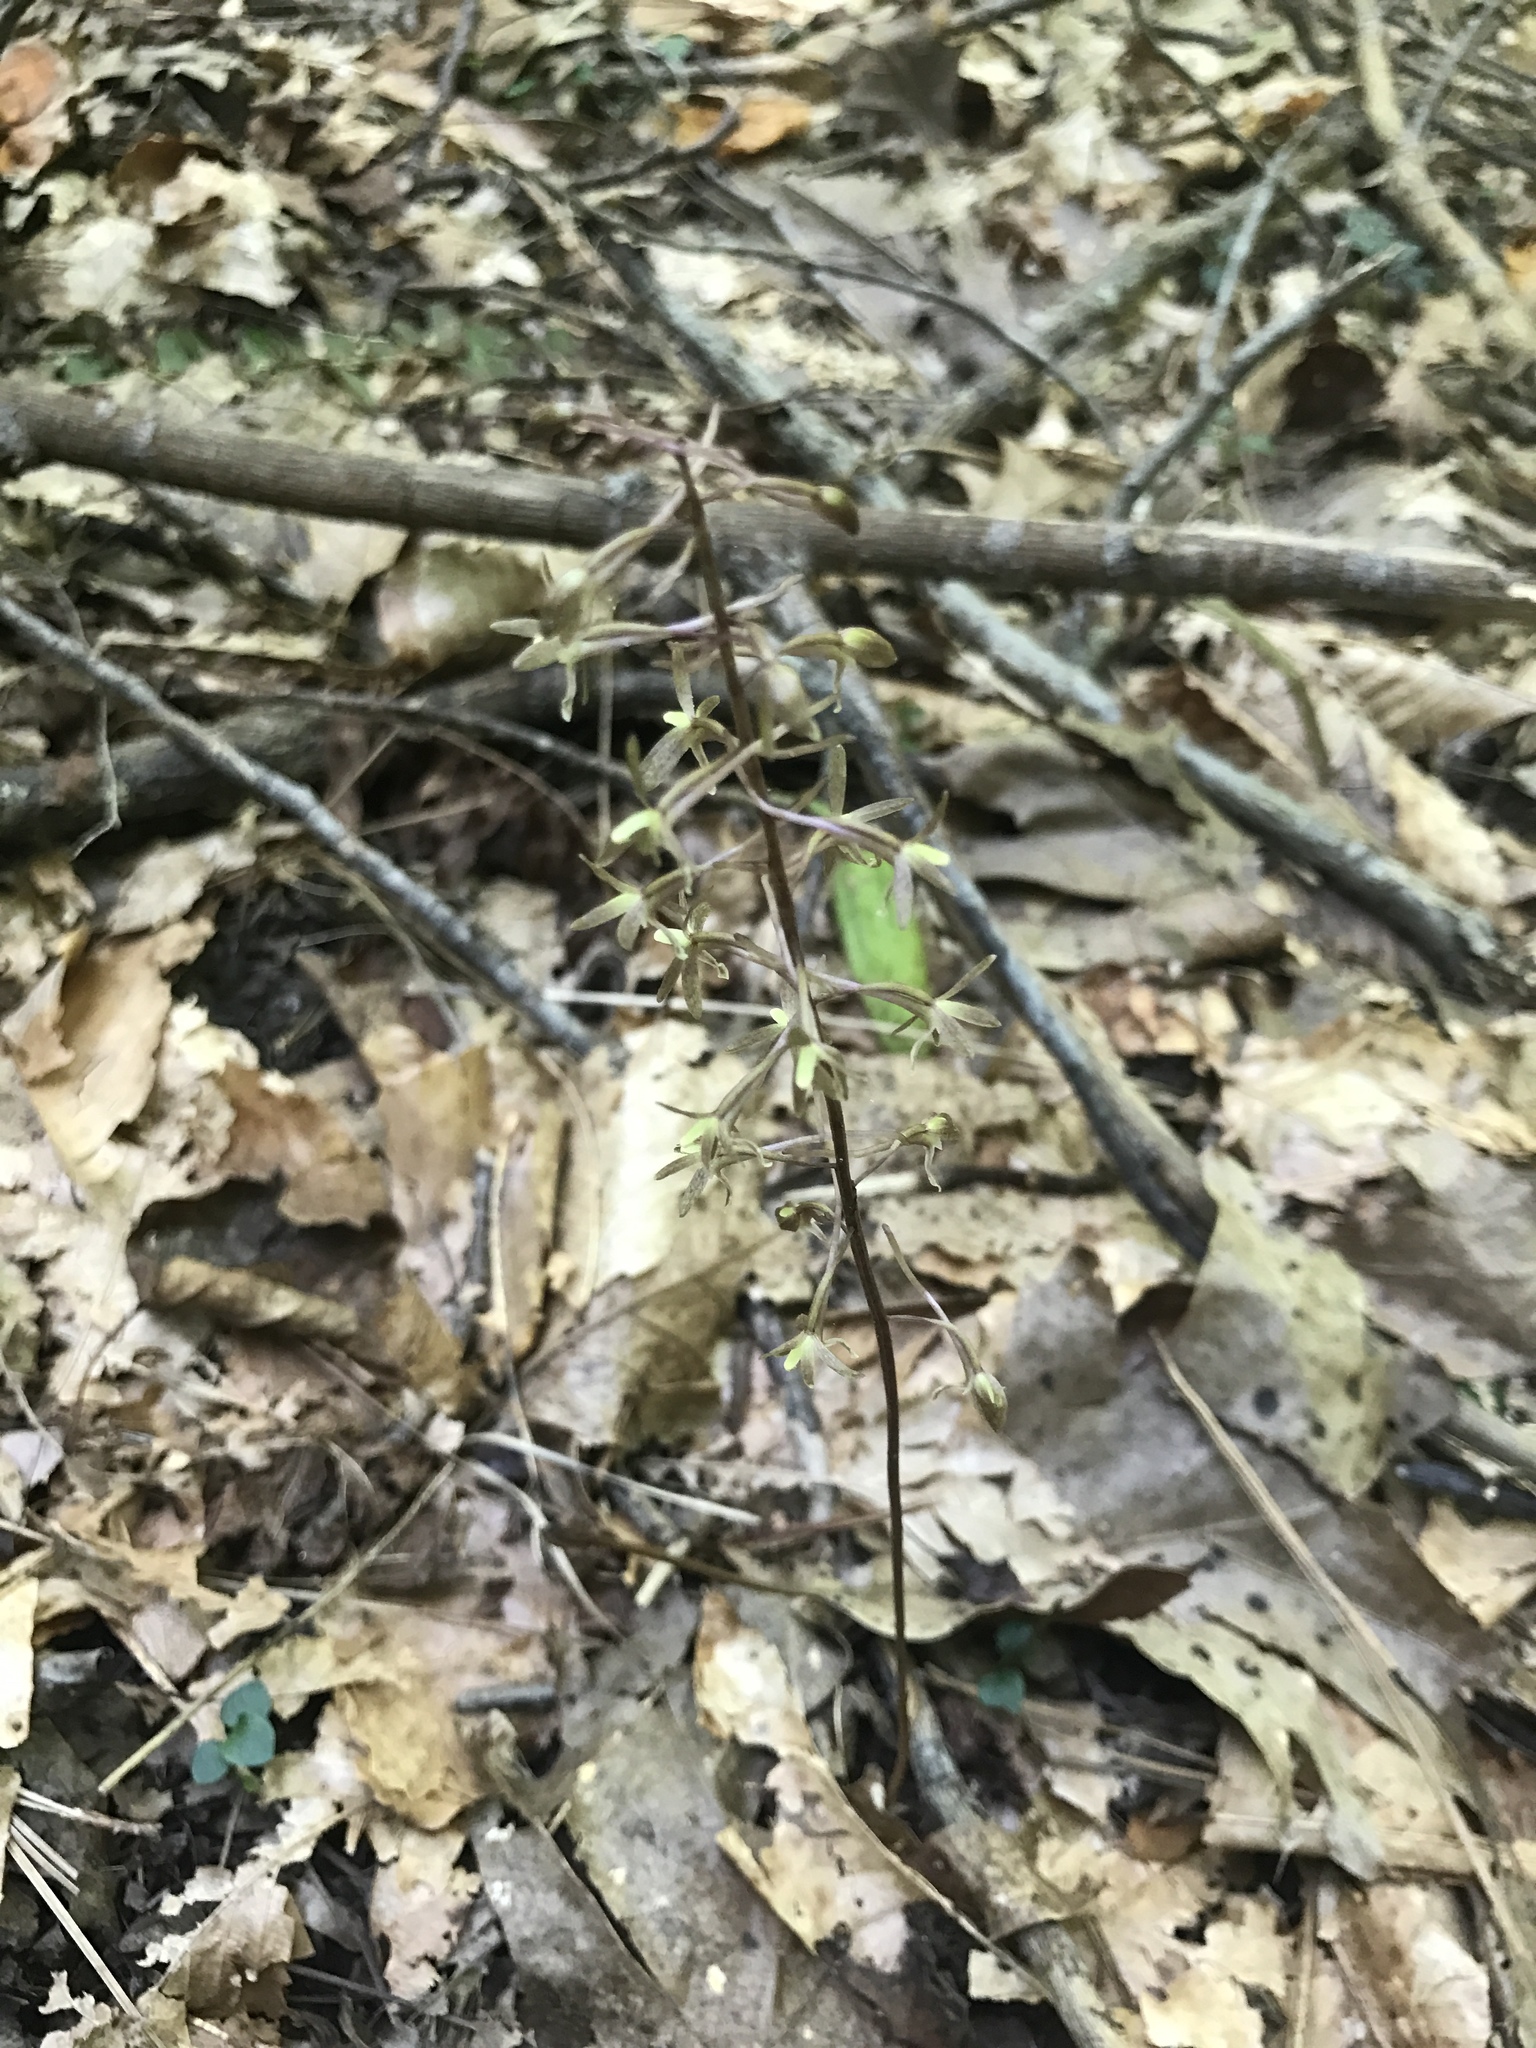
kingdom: Plantae
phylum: Tracheophyta
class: Liliopsida
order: Asparagales
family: Orchidaceae
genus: Tipularia
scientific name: Tipularia discolor
